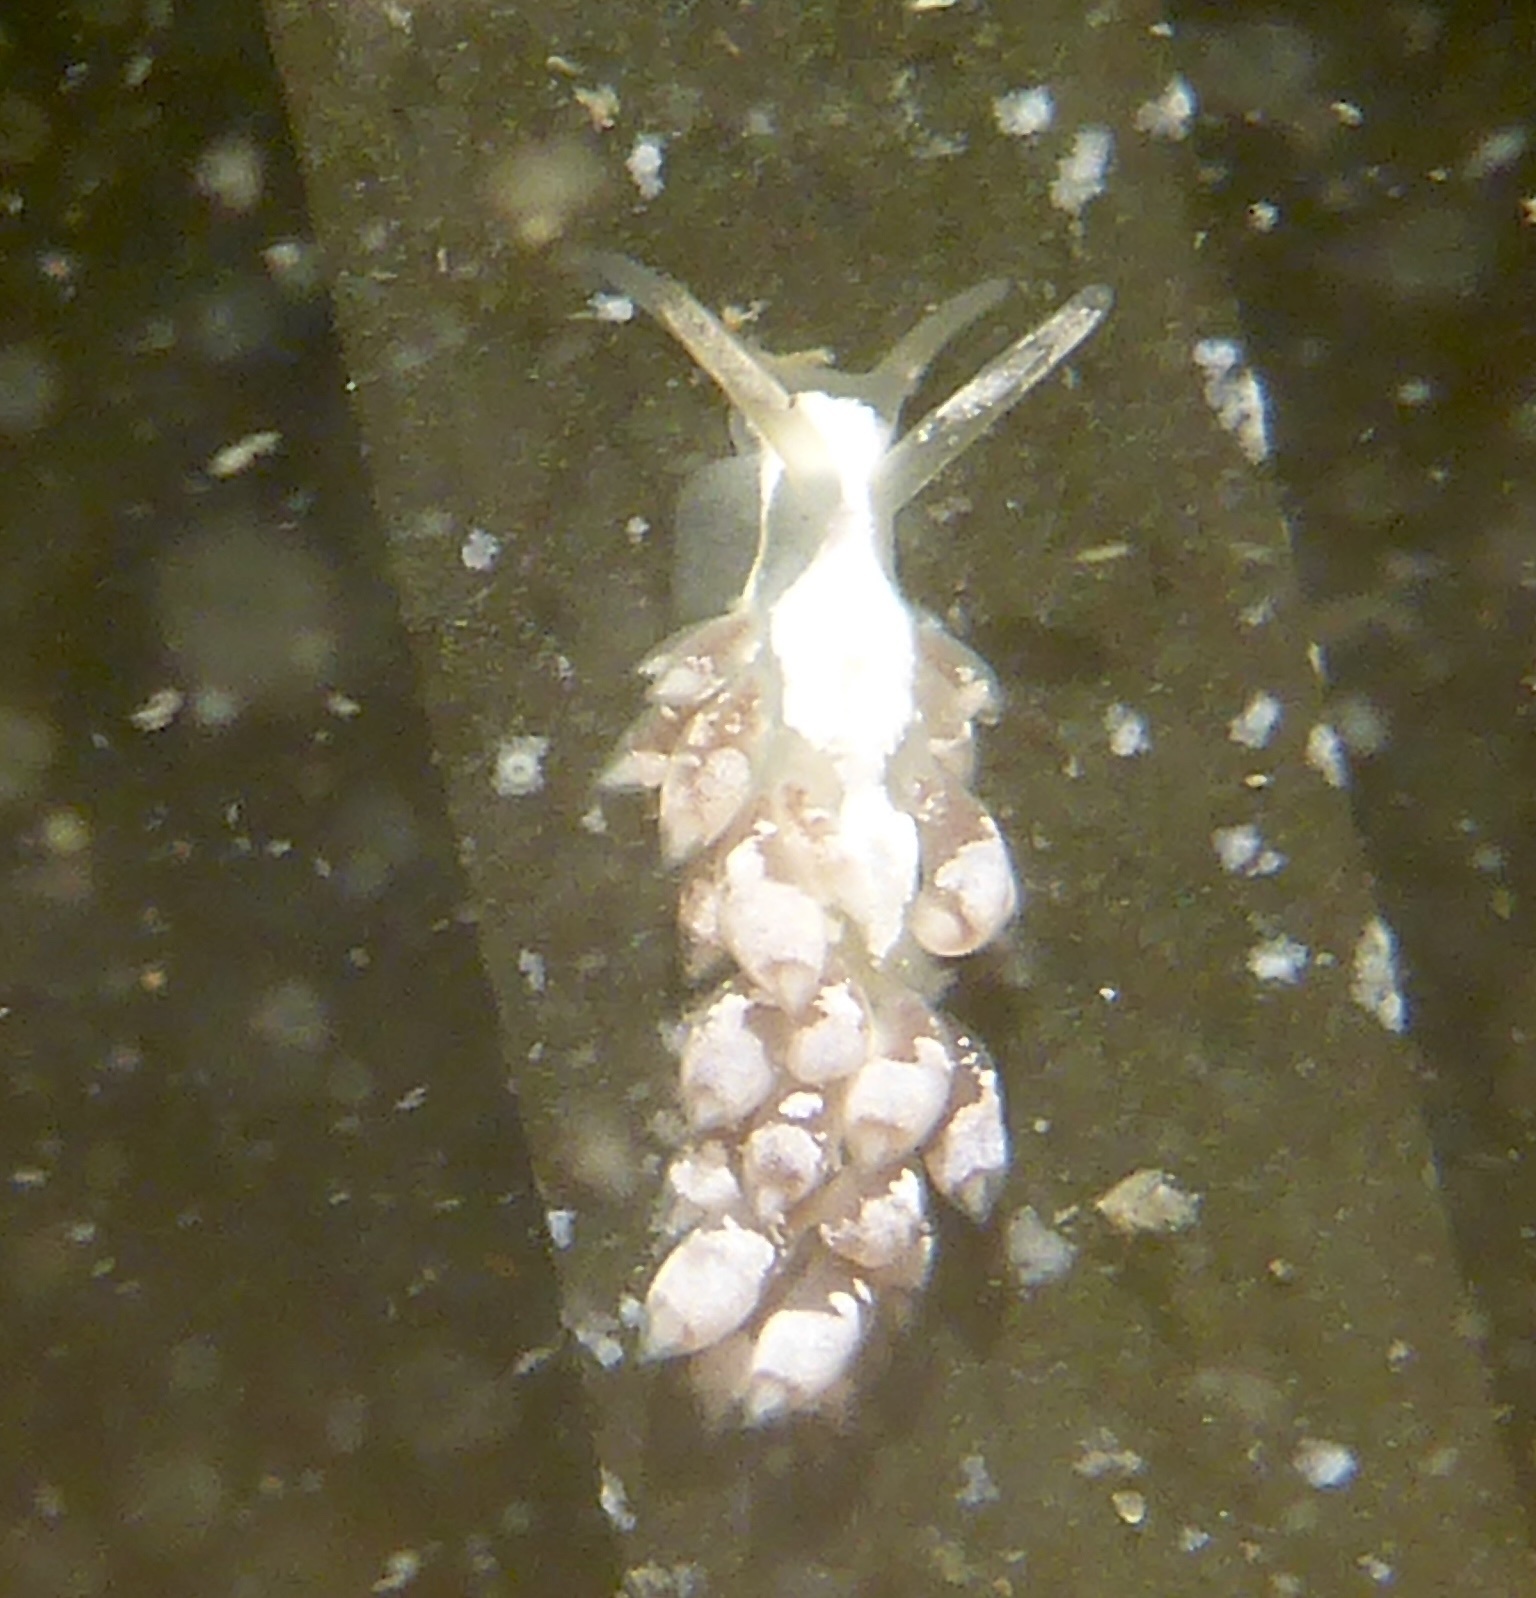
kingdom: Animalia
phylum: Mollusca
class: Gastropoda
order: Nudibranchia
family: Trinchesiidae
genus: Trinchesia
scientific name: Trinchesia albocrusta
